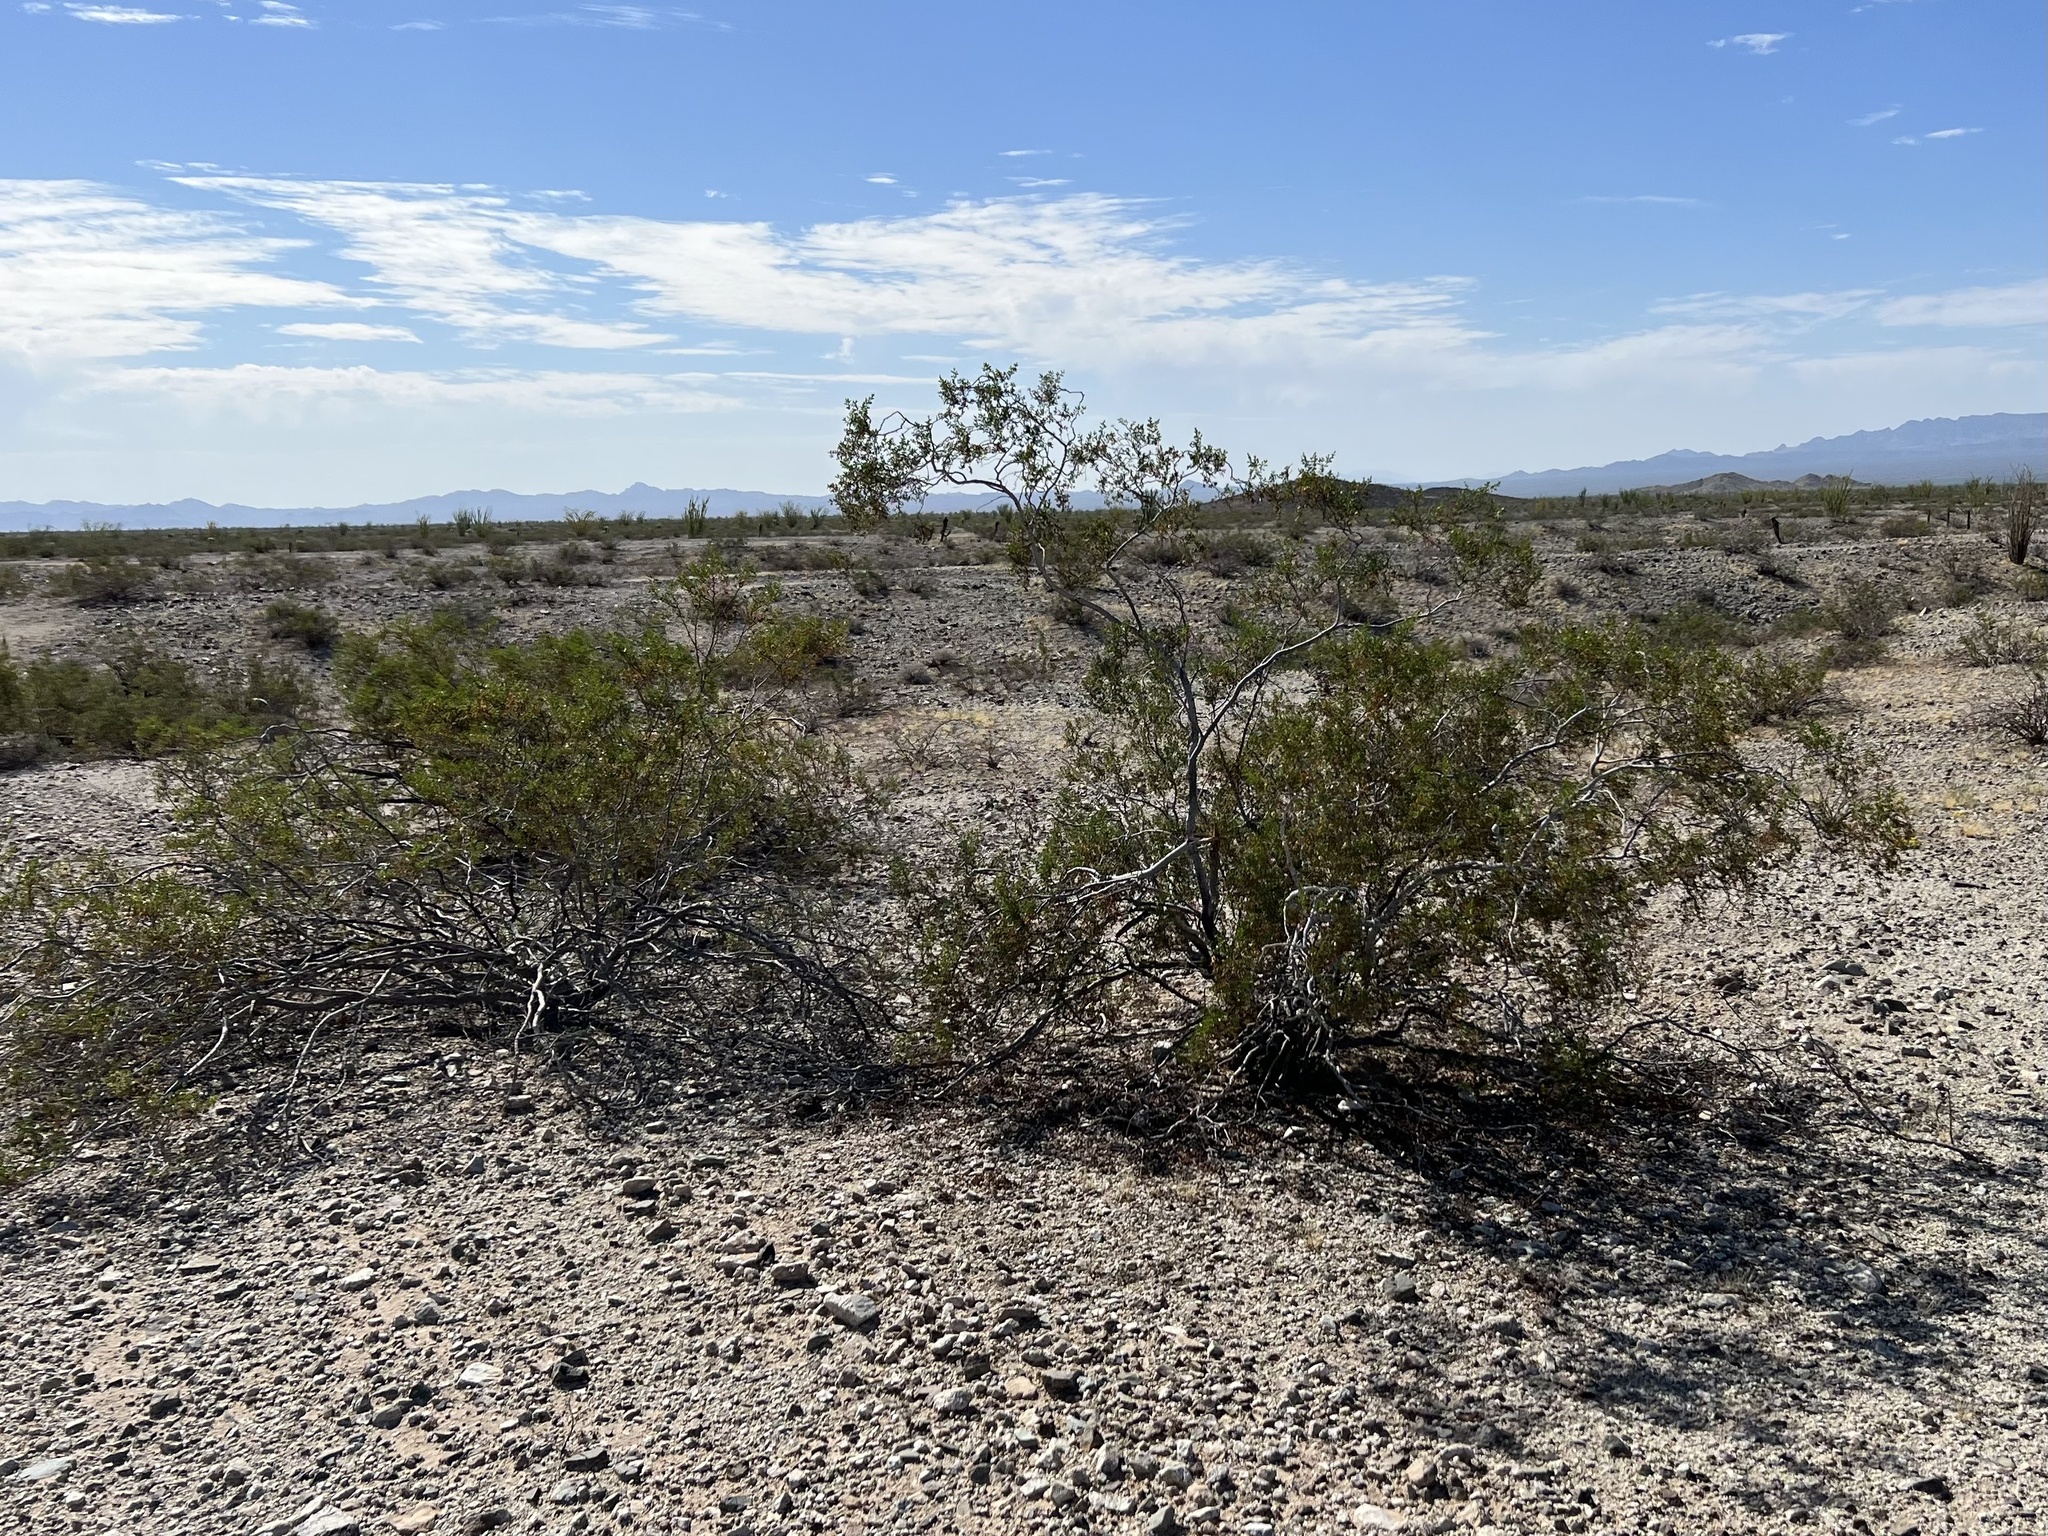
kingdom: Plantae
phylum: Tracheophyta
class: Magnoliopsida
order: Zygophyllales
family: Zygophyllaceae
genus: Larrea
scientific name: Larrea tridentata
